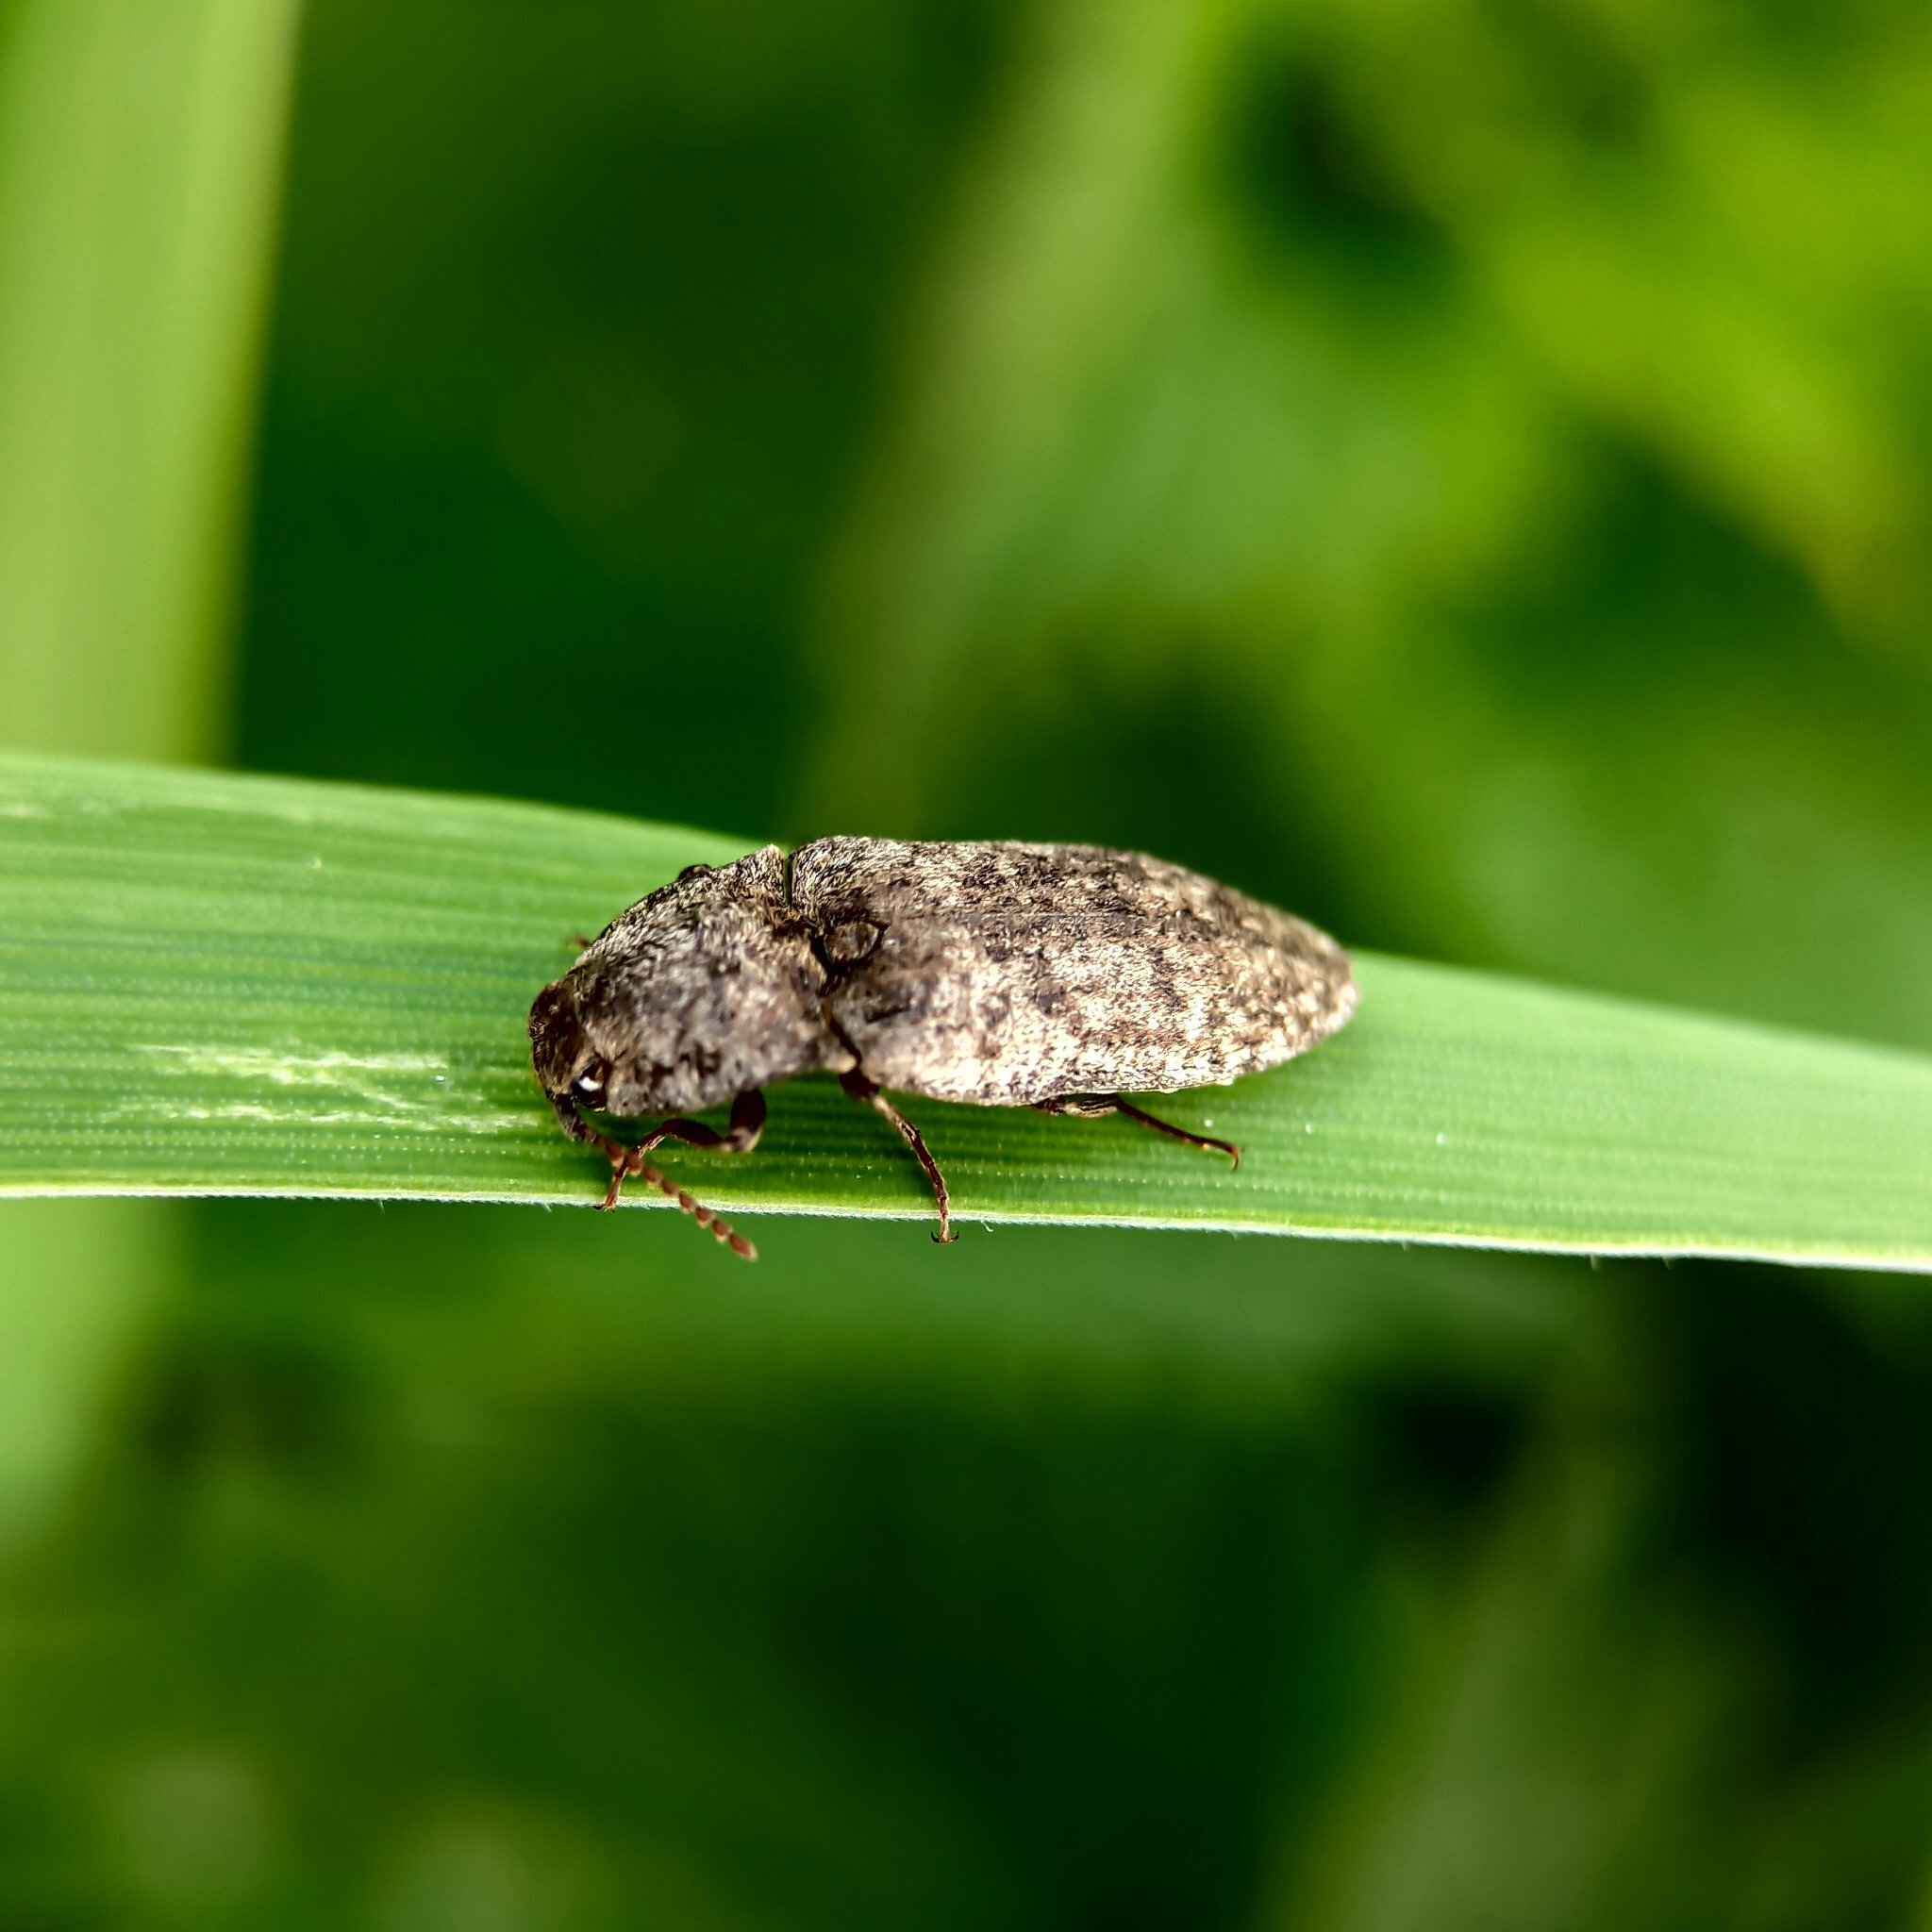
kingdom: Animalia
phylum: Arthropoda
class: Insecta
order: Coleoptera
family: Elateridae
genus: Agrypnus
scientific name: Agrypnus murinus
